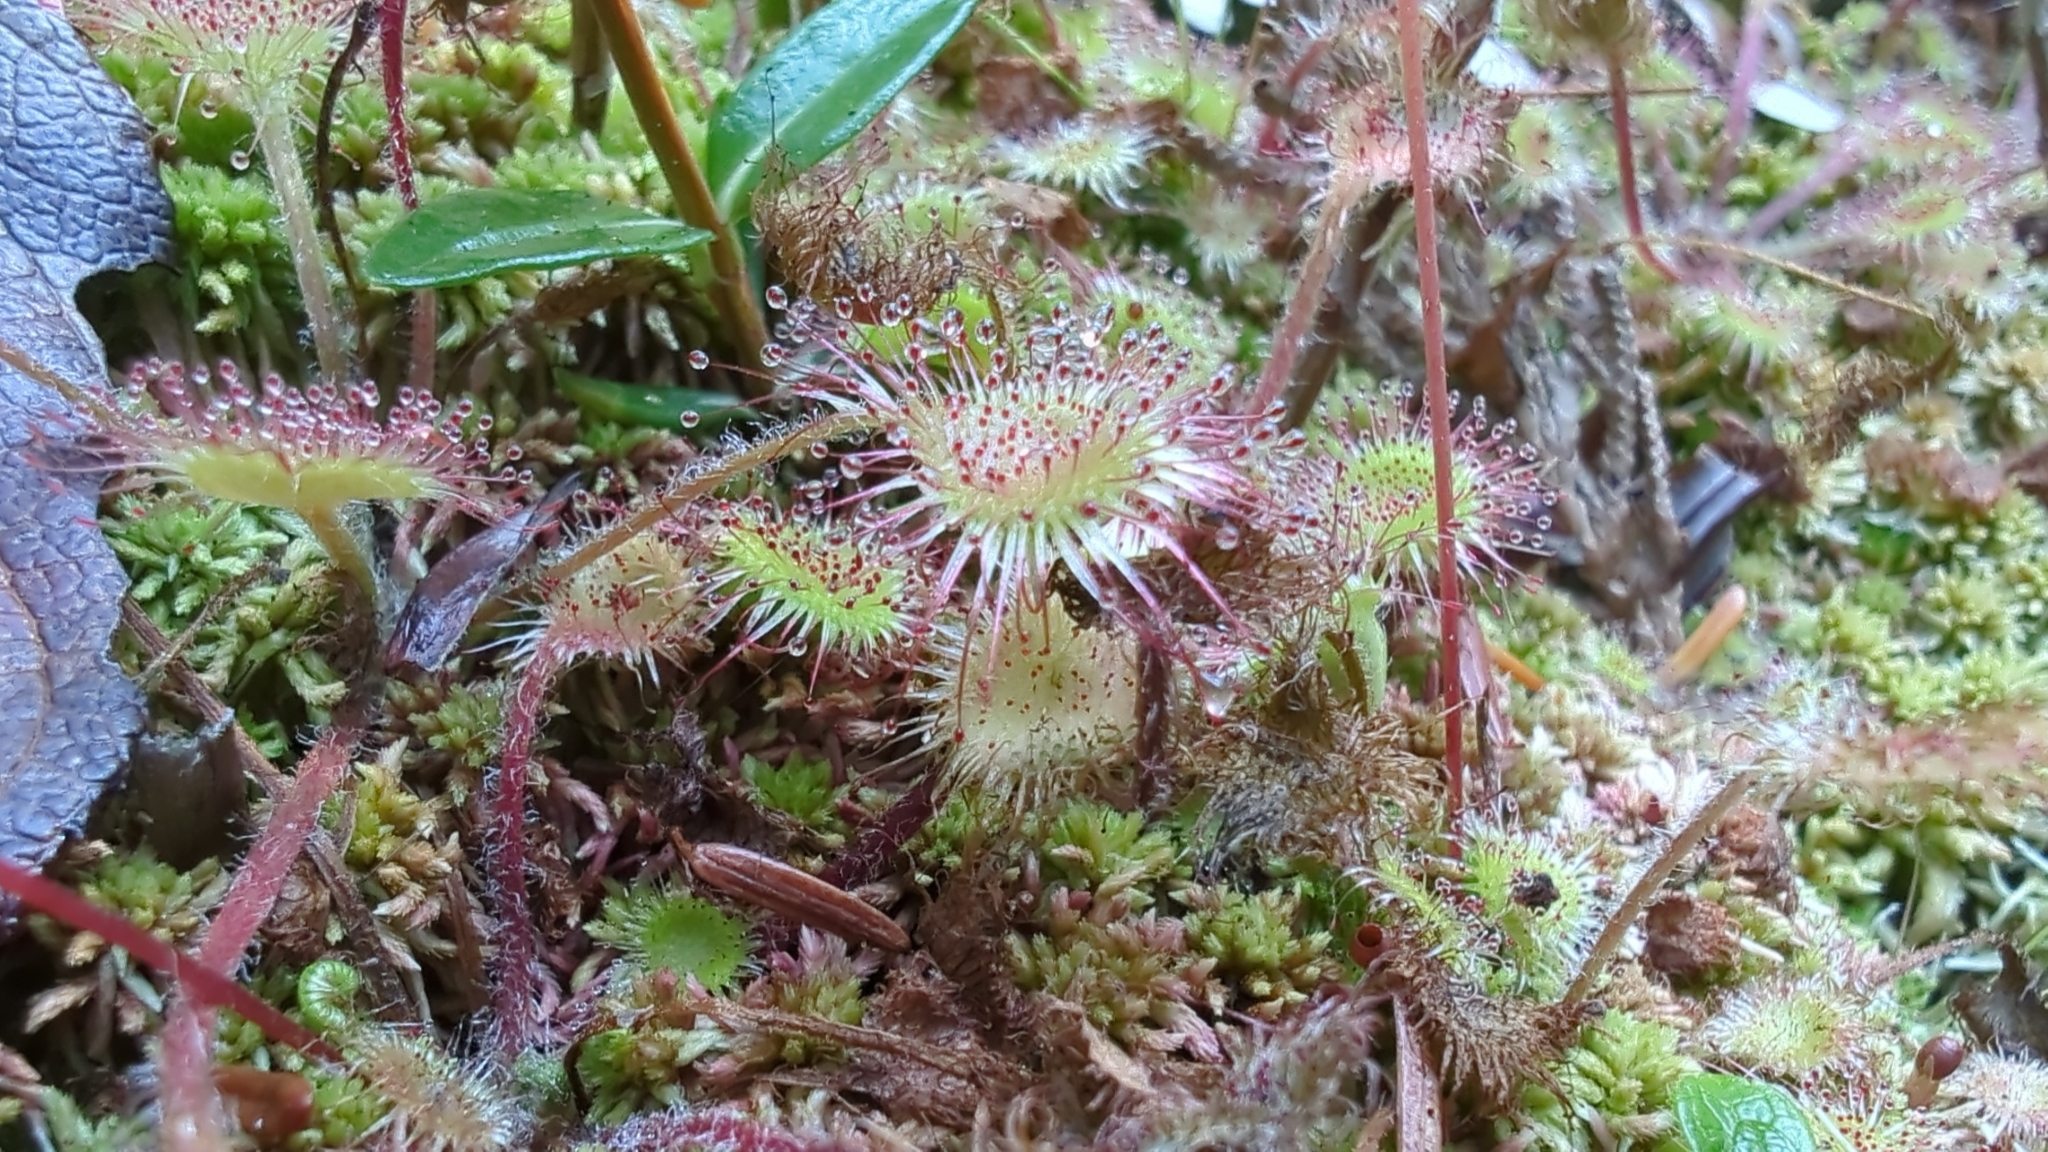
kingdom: Plantae
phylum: Tracheophyta
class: Magnoliopsida
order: Caryophyllales
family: Droseraceae
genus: Drosera
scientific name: Drosera rotundifolia
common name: Round-leaved sundew
